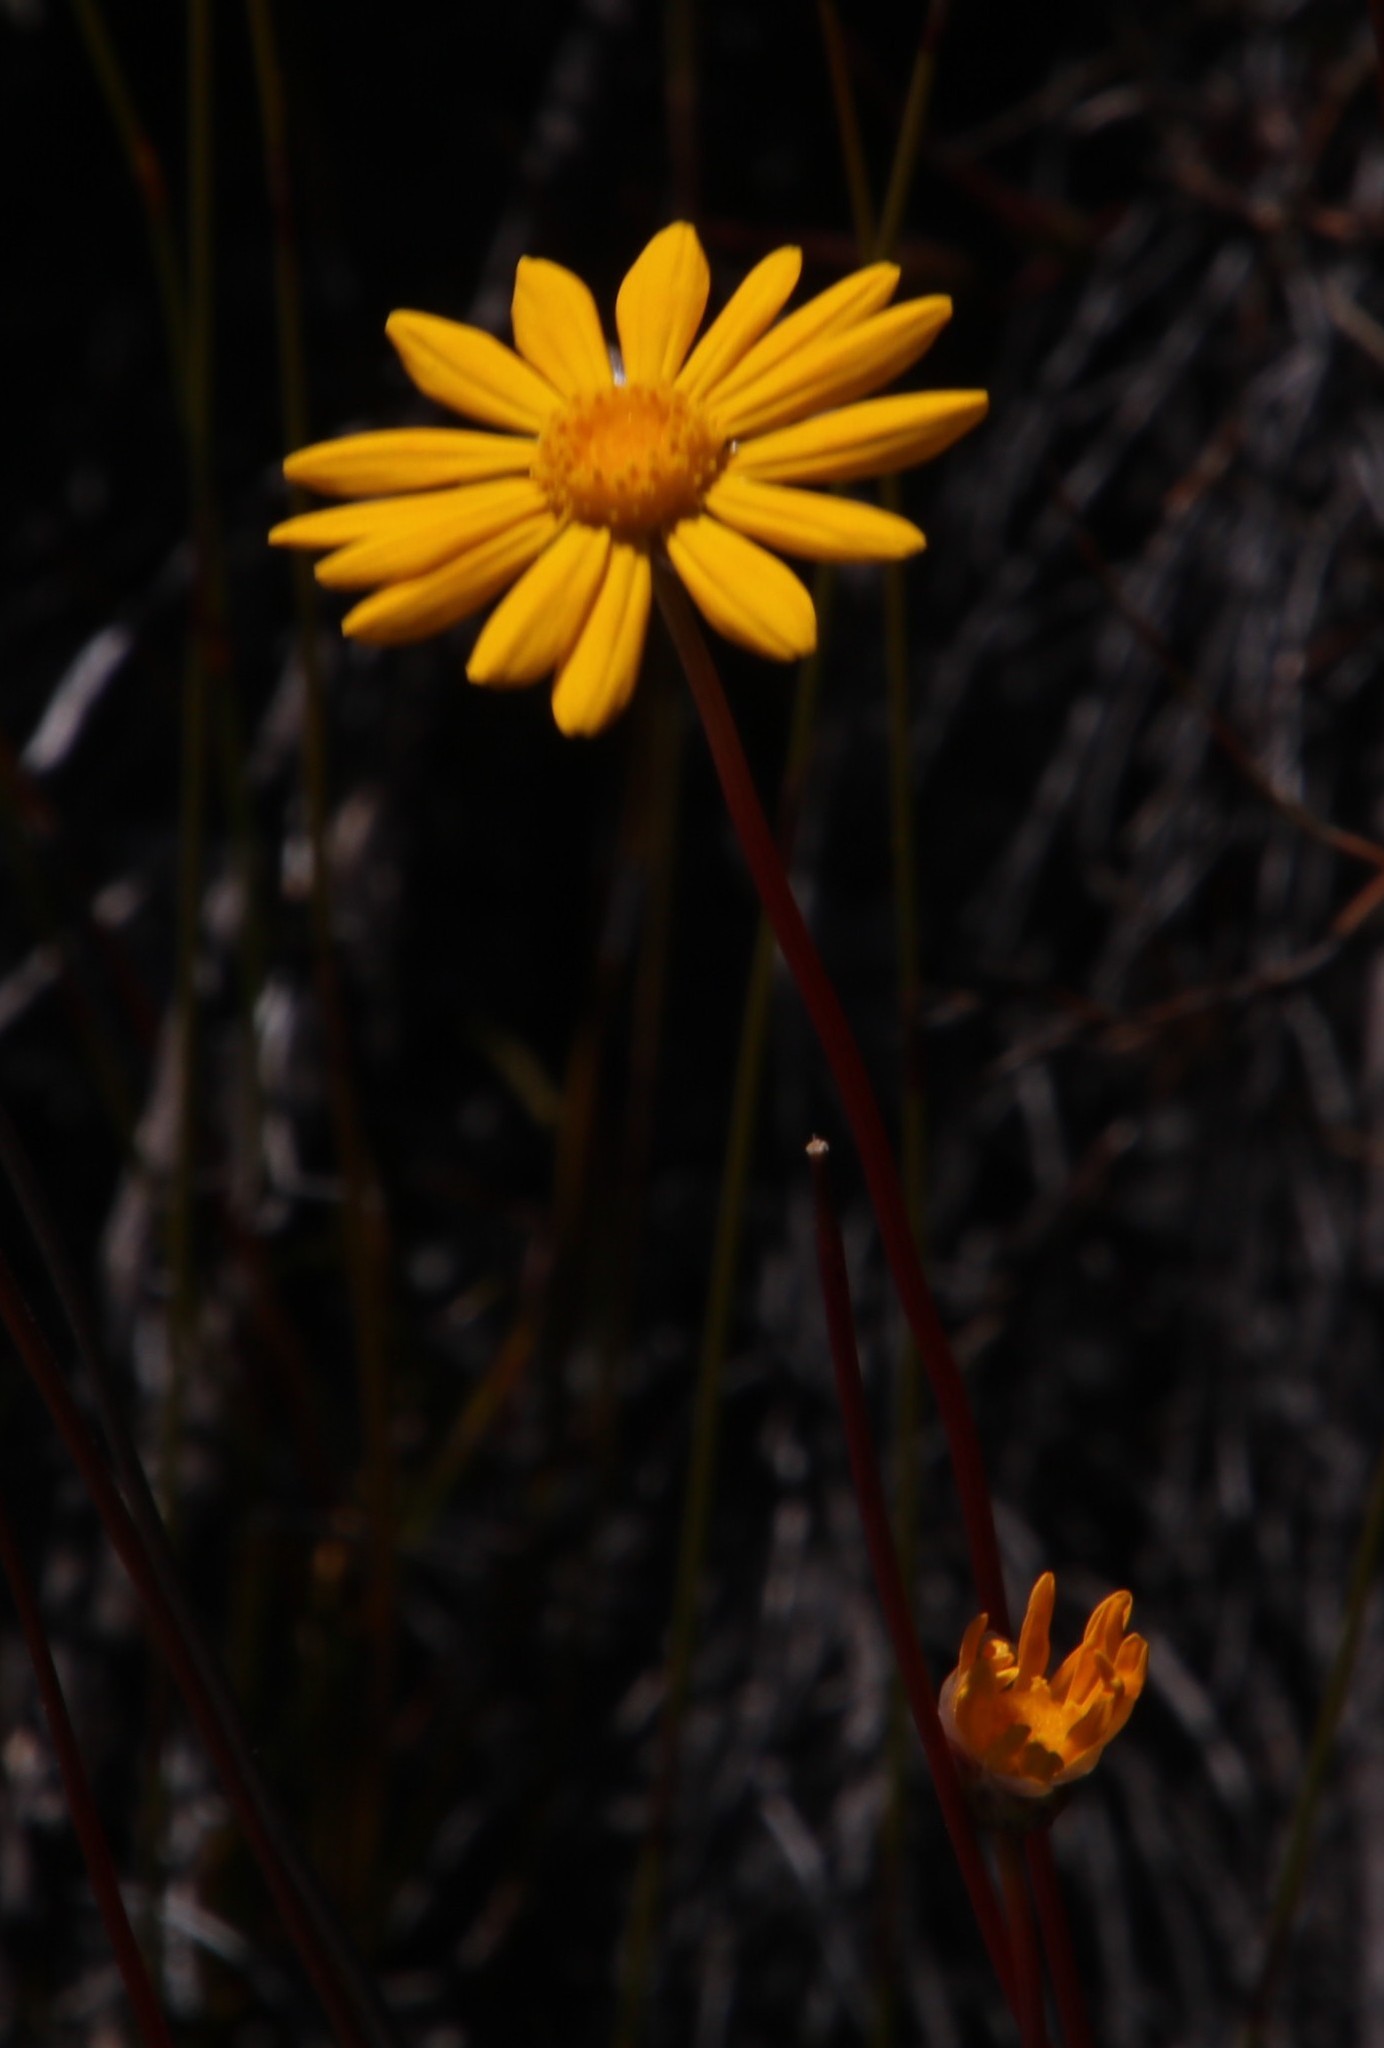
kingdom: Plantae
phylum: Tracheophyta
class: Magnoliopsida
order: Asterales
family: Asteraceae
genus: Ursinia
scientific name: Ursinia nudicaulis
